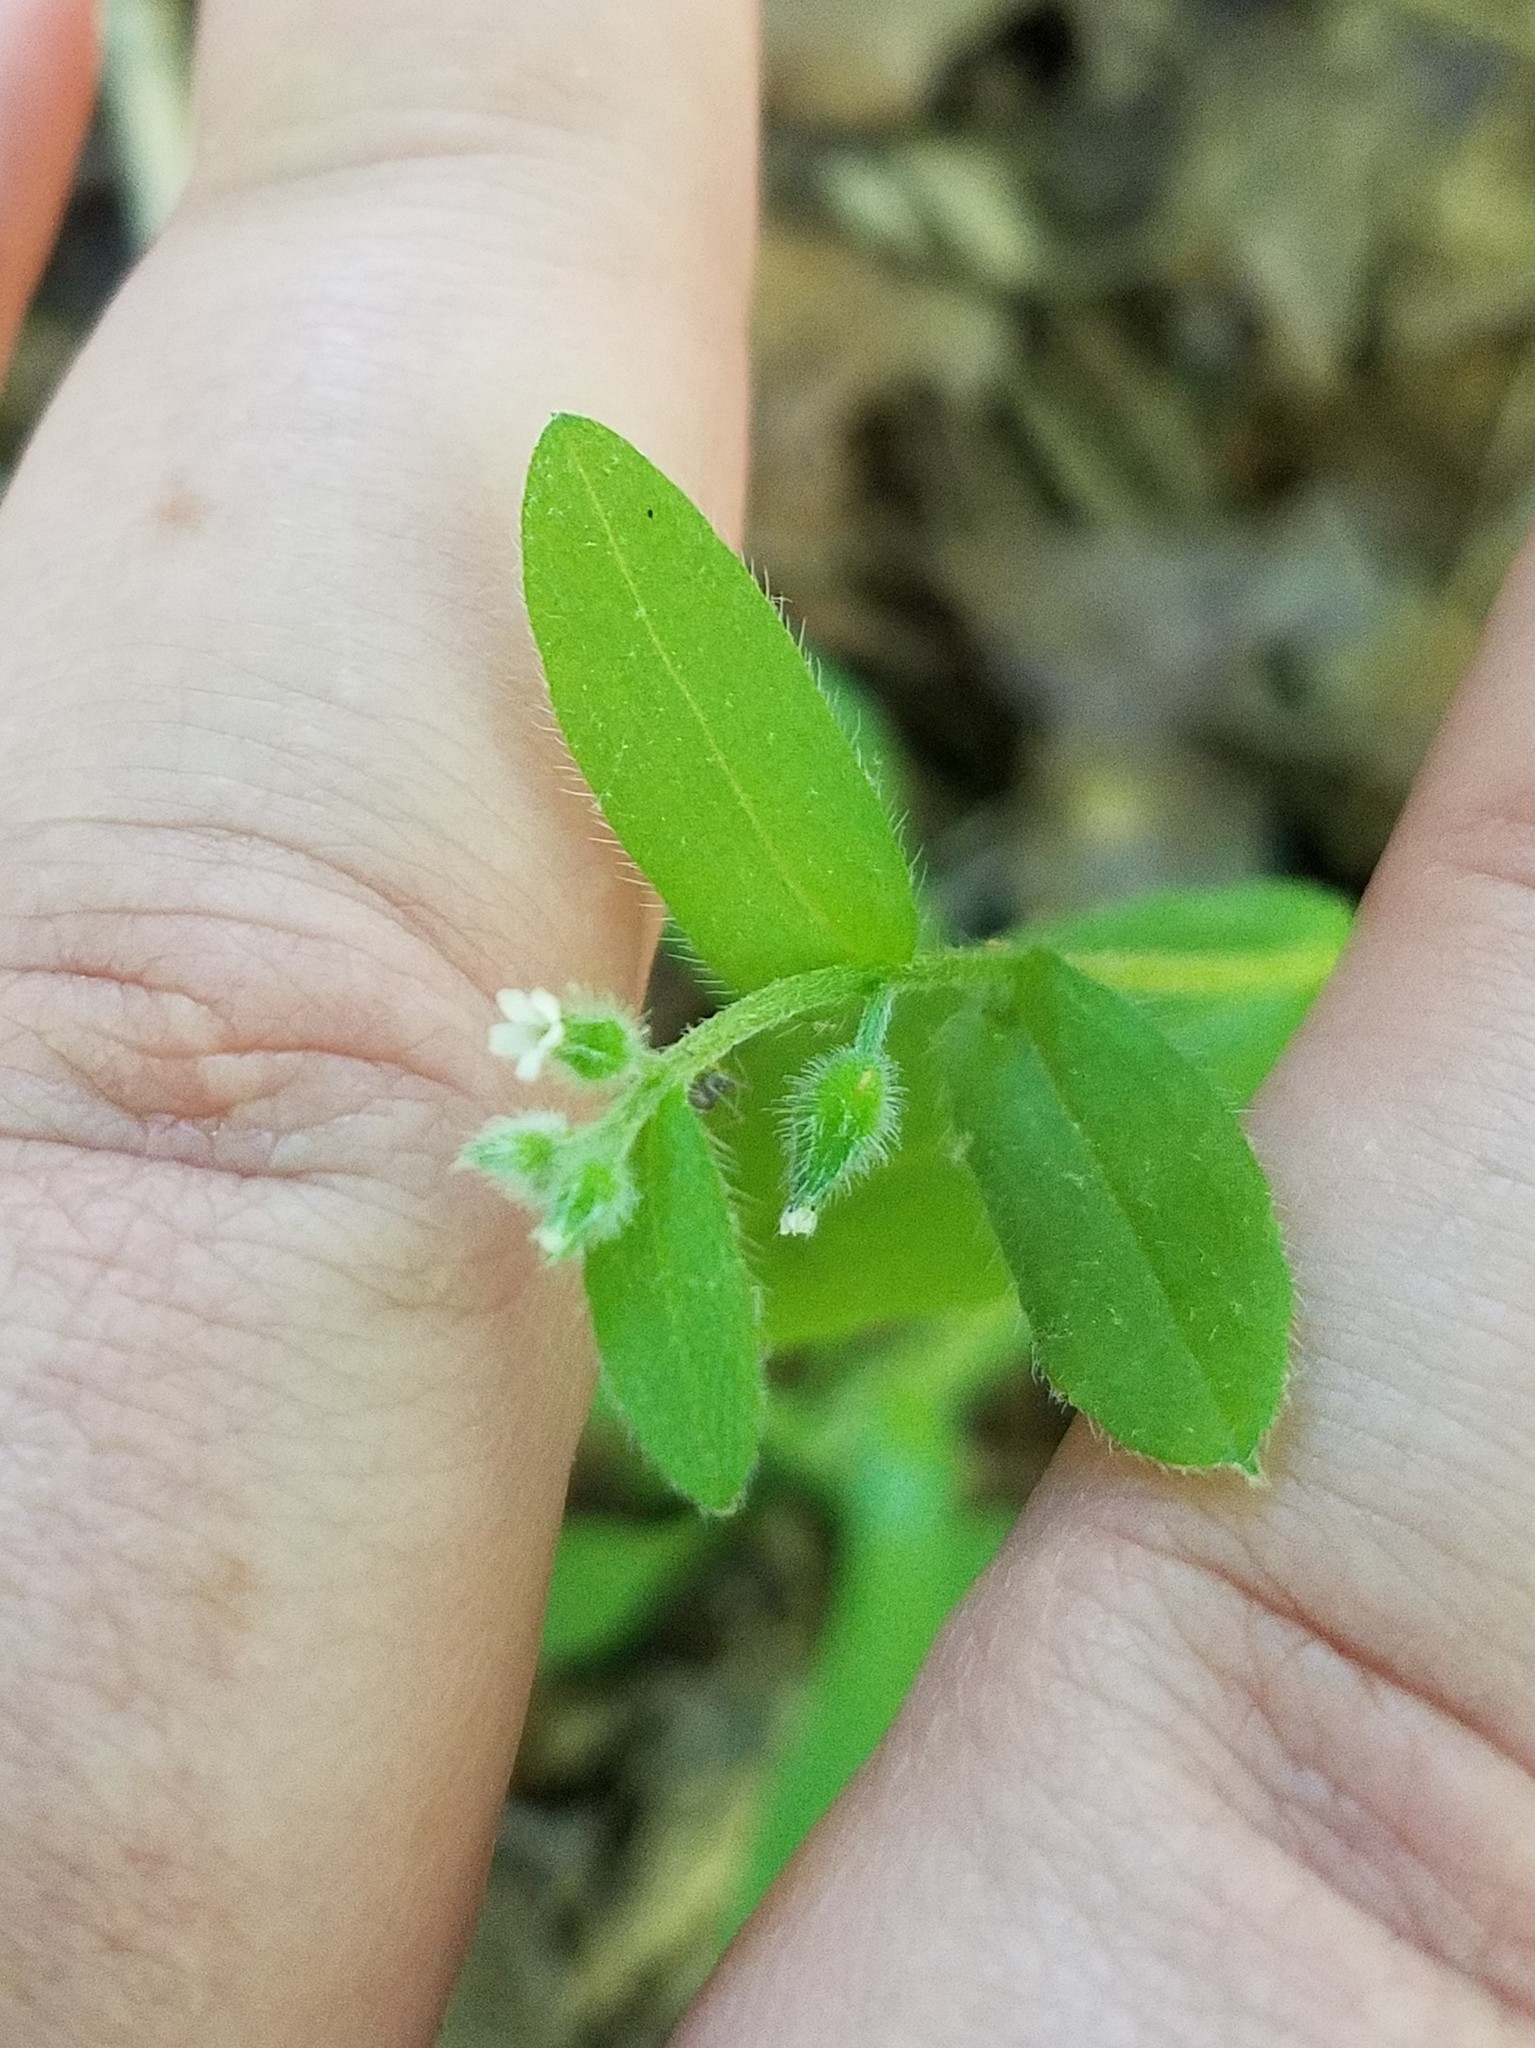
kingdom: Plantae
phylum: Tracheophyta
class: Magnoliopsida
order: Boraginales
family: Boraginaceae
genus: Myosotis
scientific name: Myosotis macrosperma
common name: Large-seed forget-me-not
